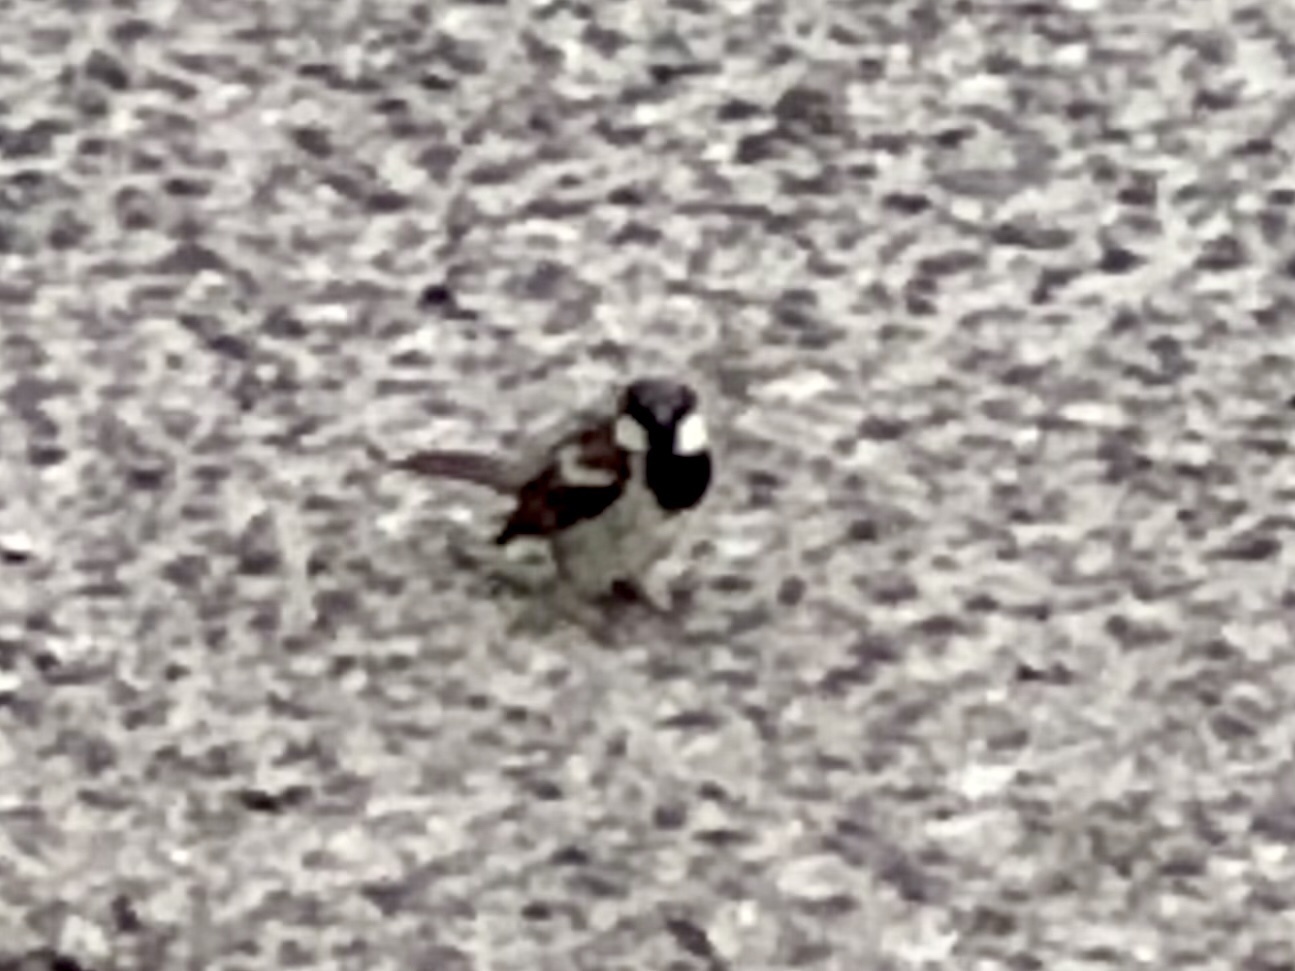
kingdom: Animalia
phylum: Chordata
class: Aves
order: Passeriformes
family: Passeridae
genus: Passer
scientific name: Passer domesticus
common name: House sparrow
